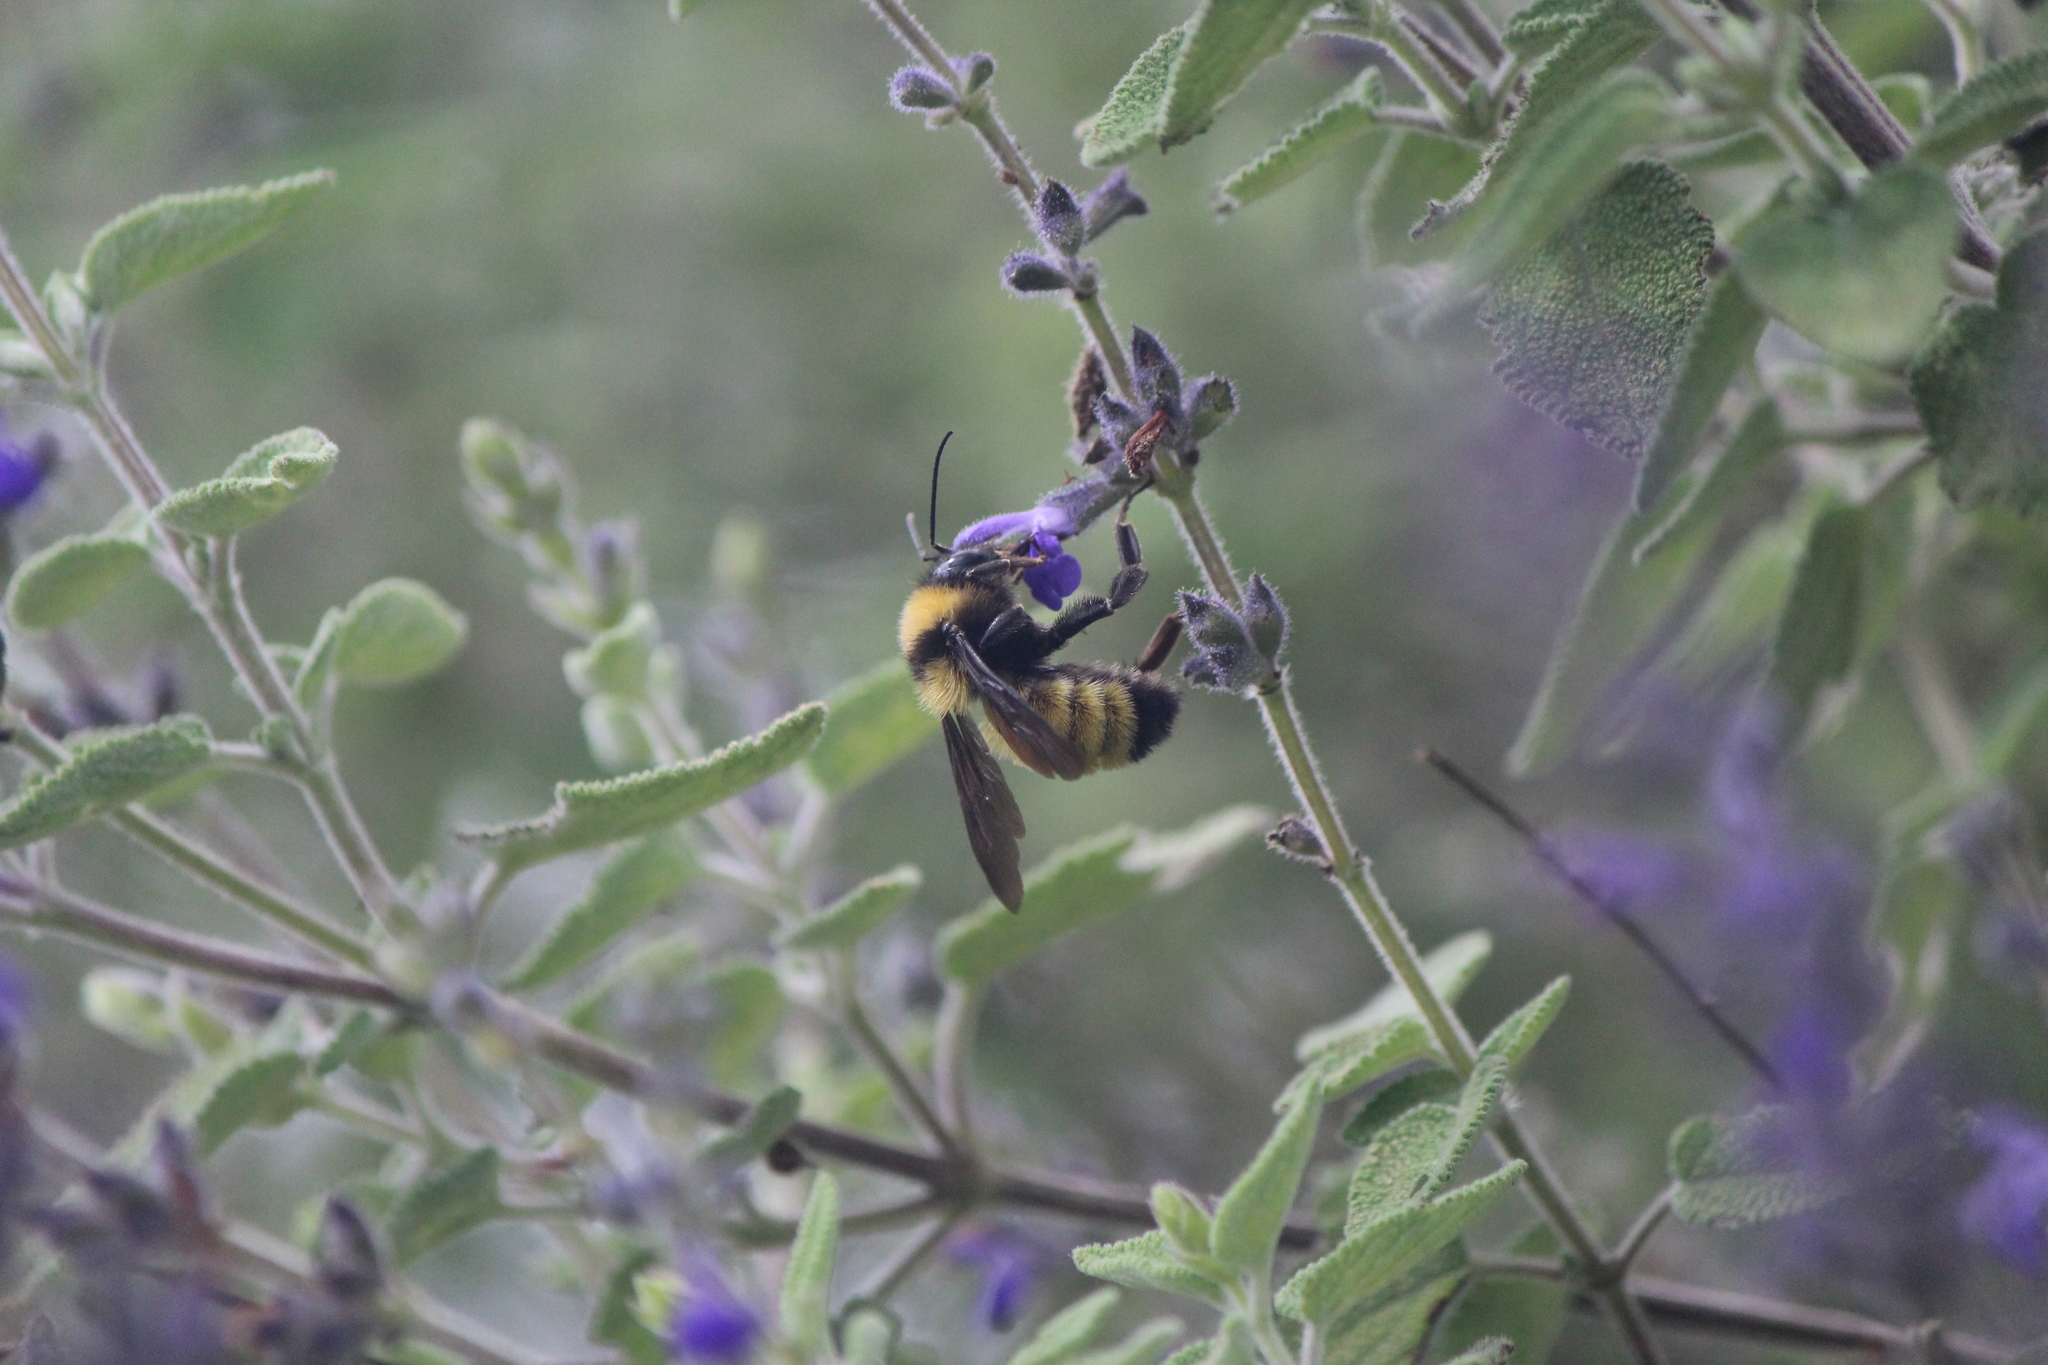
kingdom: Animalia
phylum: Arthropoda
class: Insecta
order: Hymenoptera
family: Apidae
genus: Bombus
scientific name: Bombus sonorus
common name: Sonoran bumble bee
